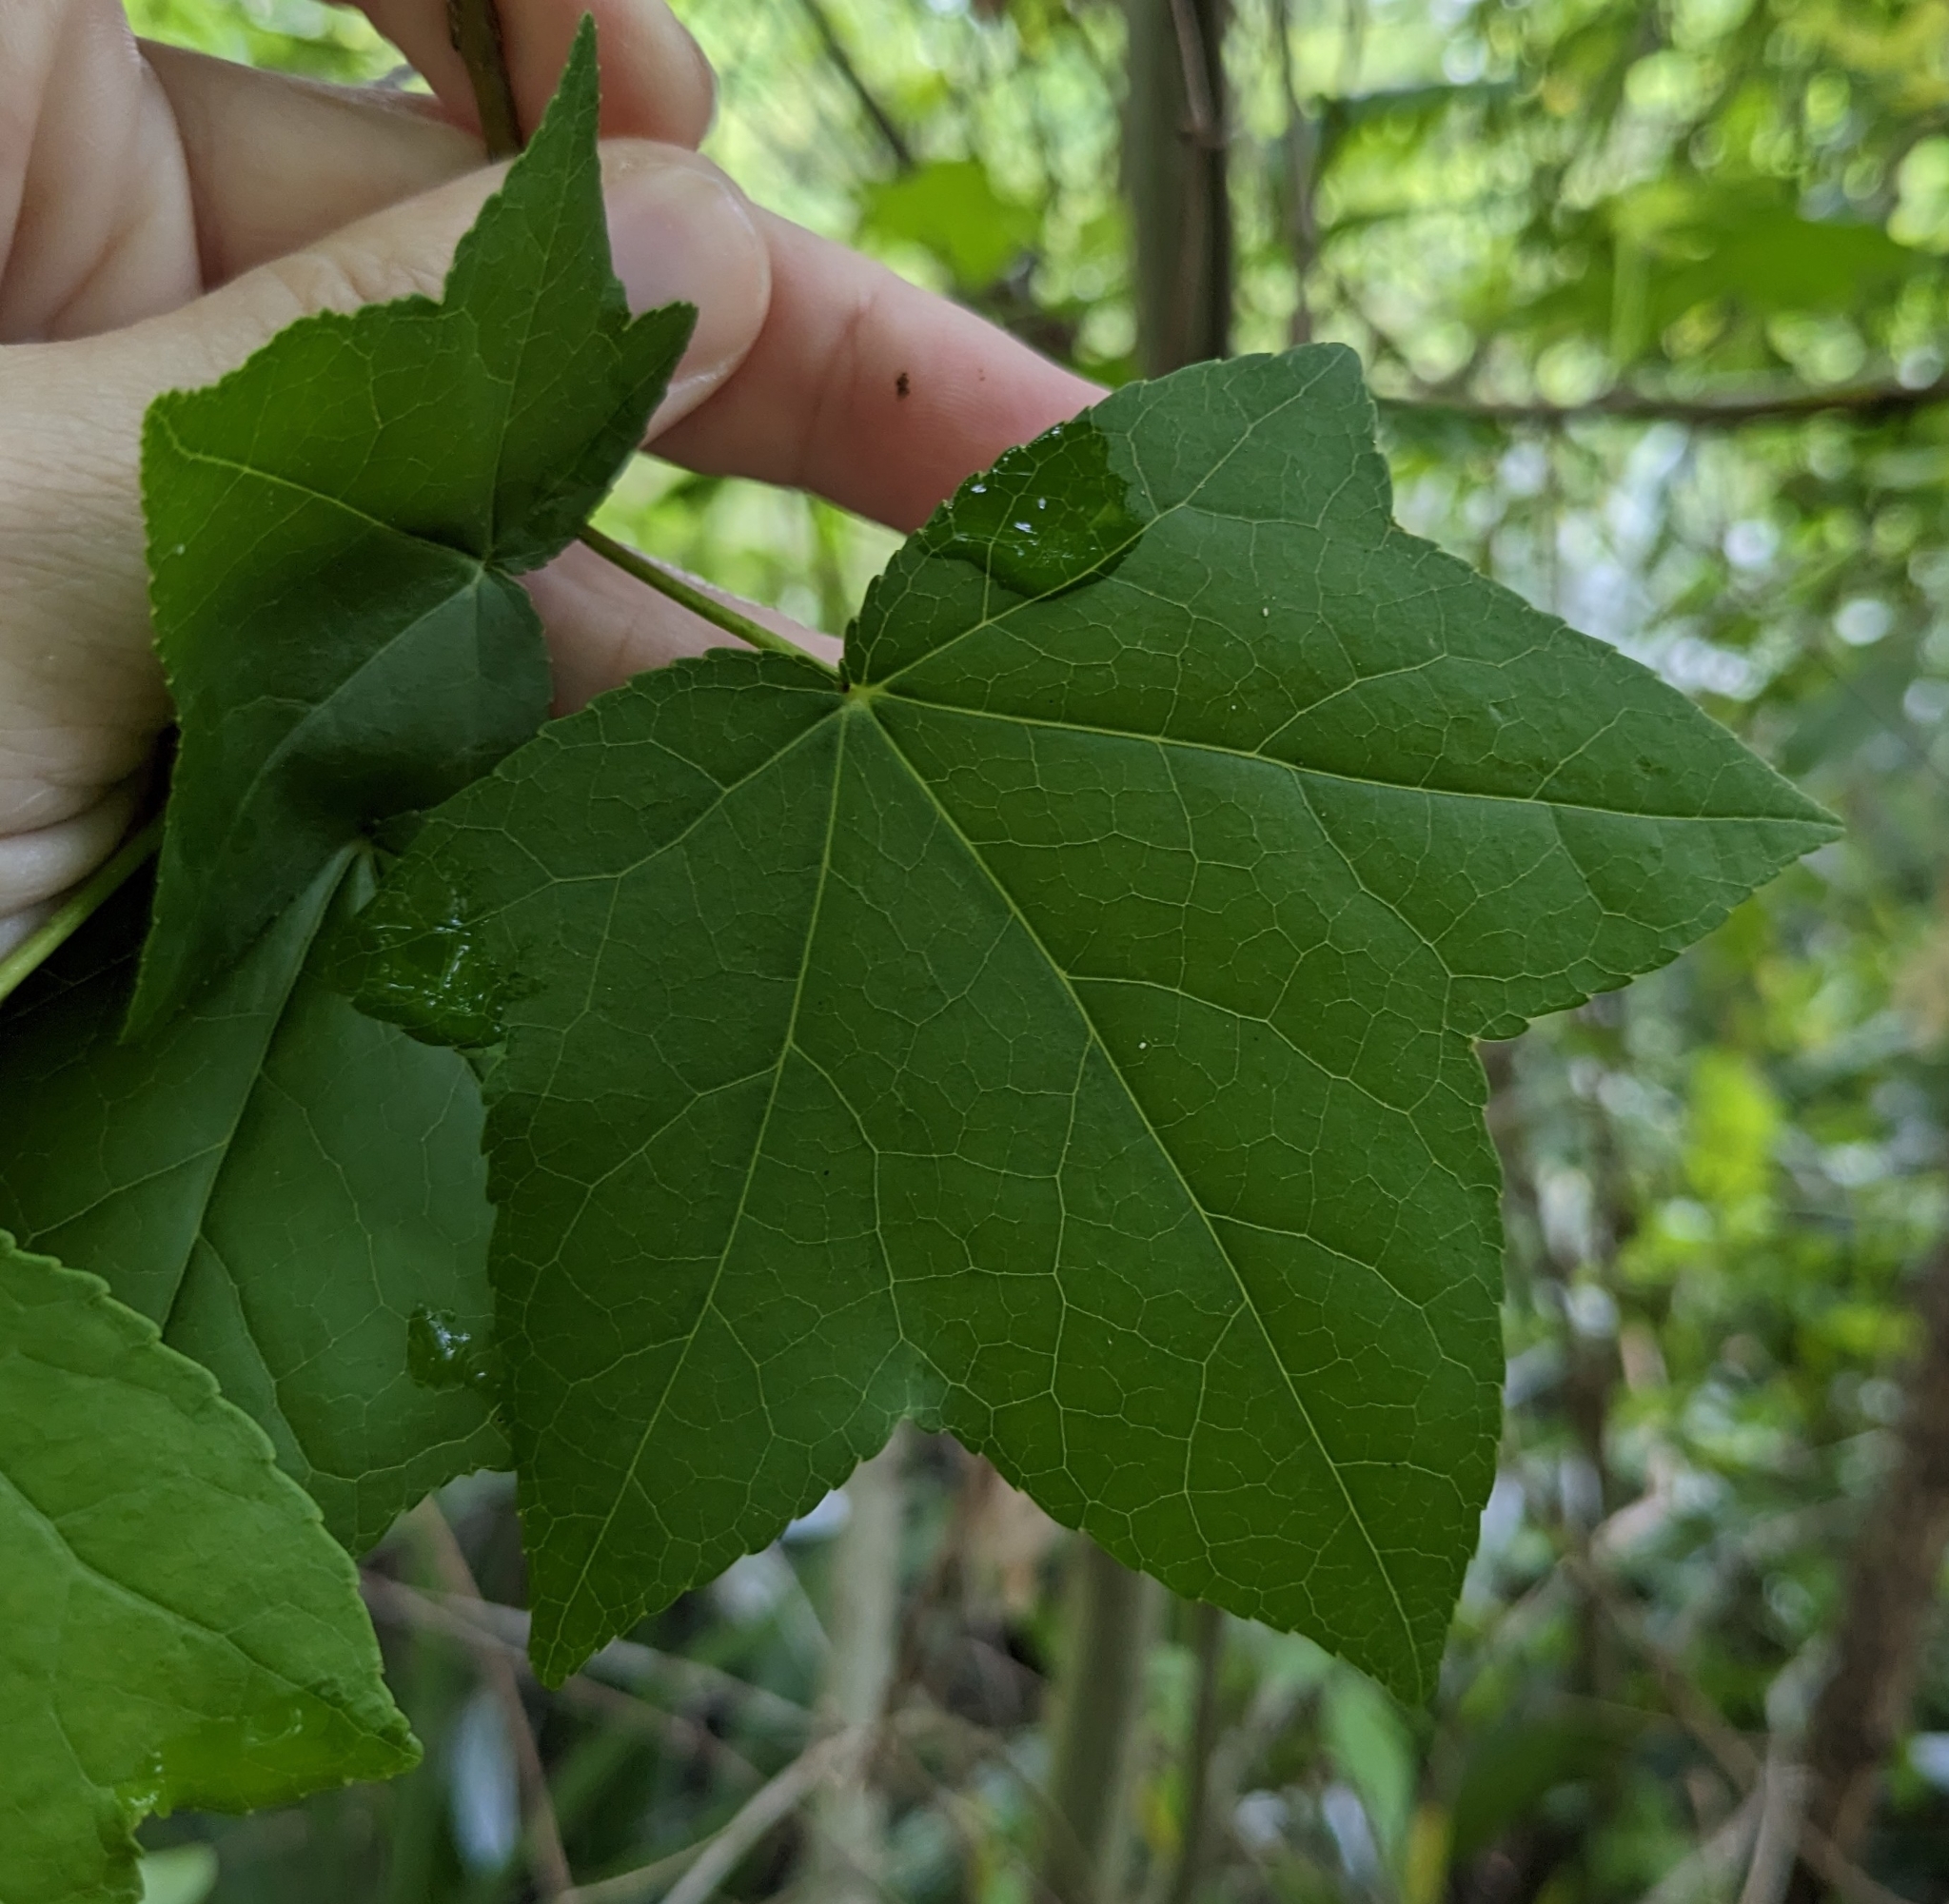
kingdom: Plantae
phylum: Tracheophyta
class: Magnoliopsida
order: Saxifragales
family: Altingiaceae
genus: Liquidambar
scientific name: Liquidambar styraciflua
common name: Sweet gum
